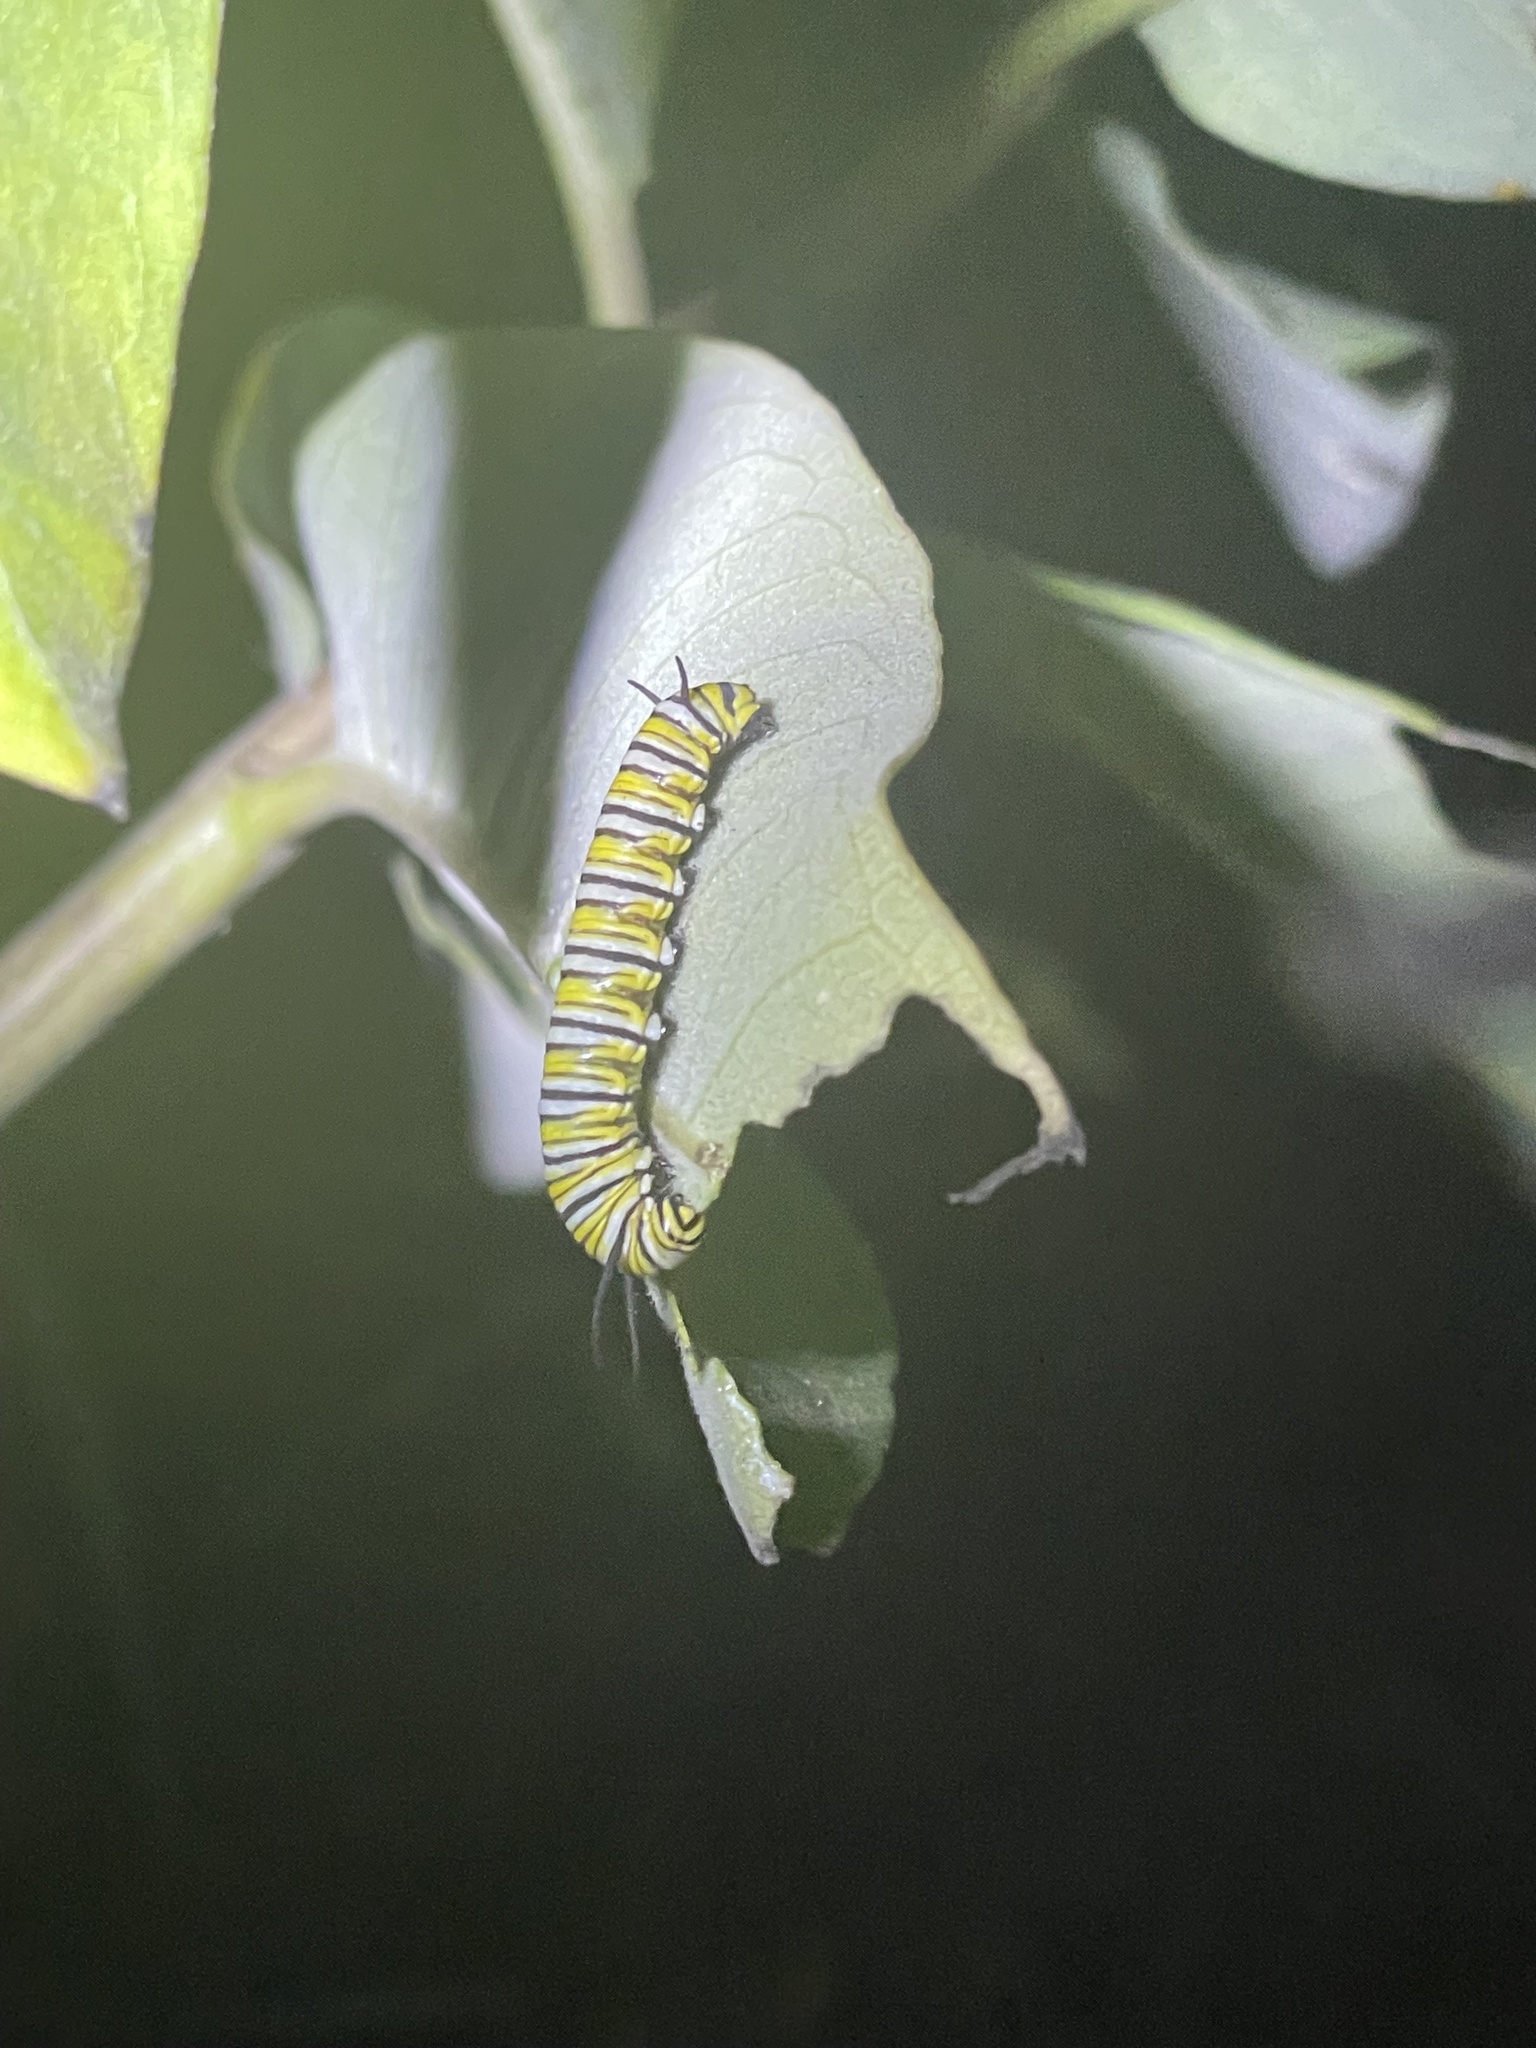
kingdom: Animalia
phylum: Arthropoda
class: Insecta
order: Lepidoptera
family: Nymphalidae
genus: Danaus
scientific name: Danaus plexippus
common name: Monarch
